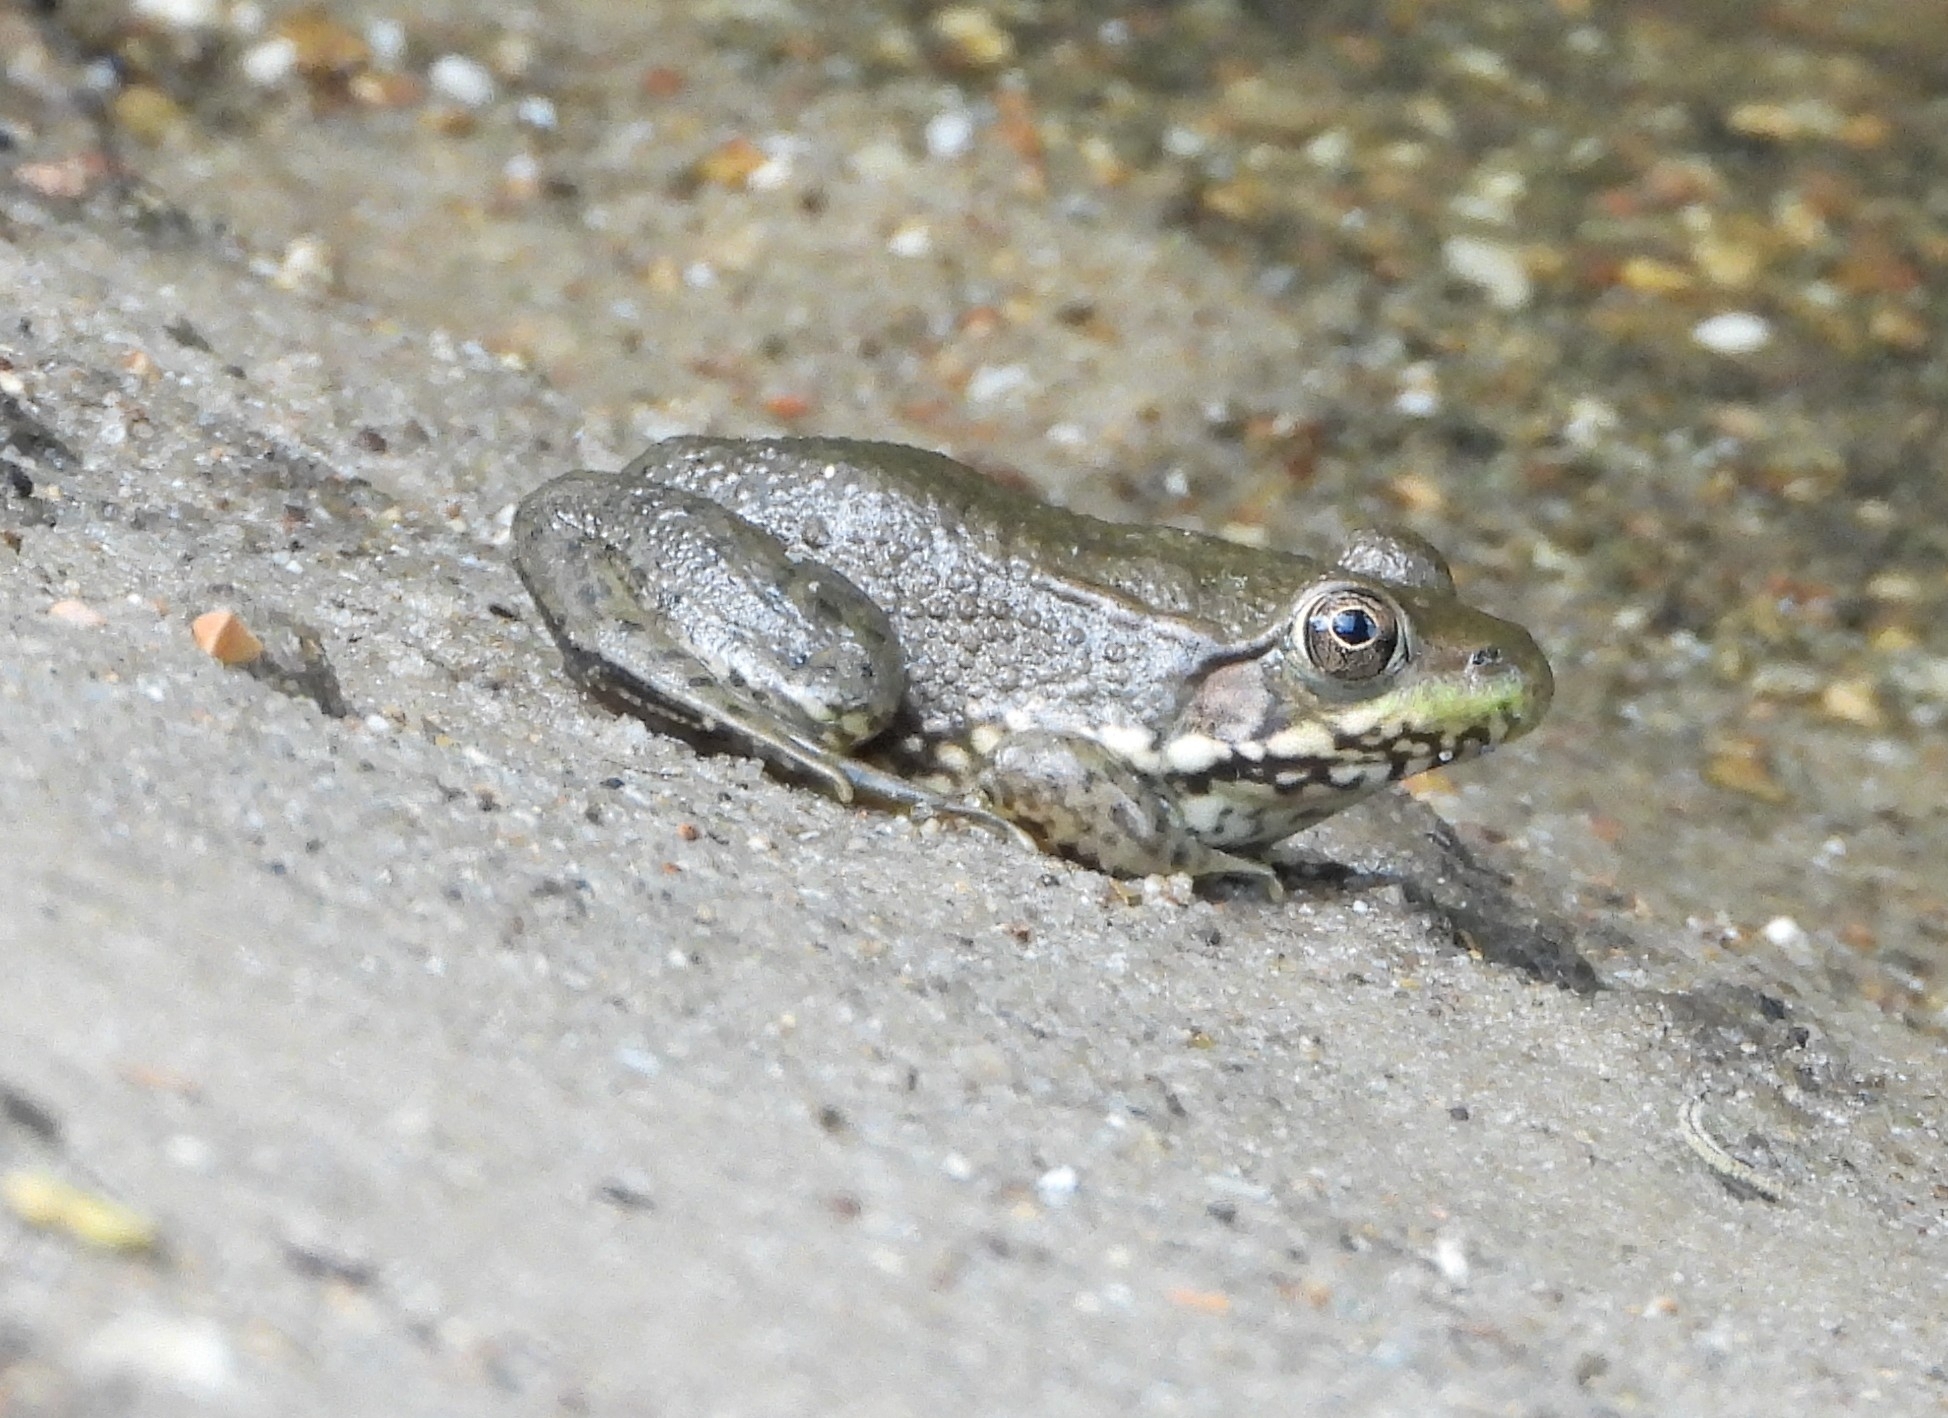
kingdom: Animalia
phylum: Chordata
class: Amphibia
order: Anura
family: Ranidae
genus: Lithobates
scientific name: Lithobates clamitans
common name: Green frog
